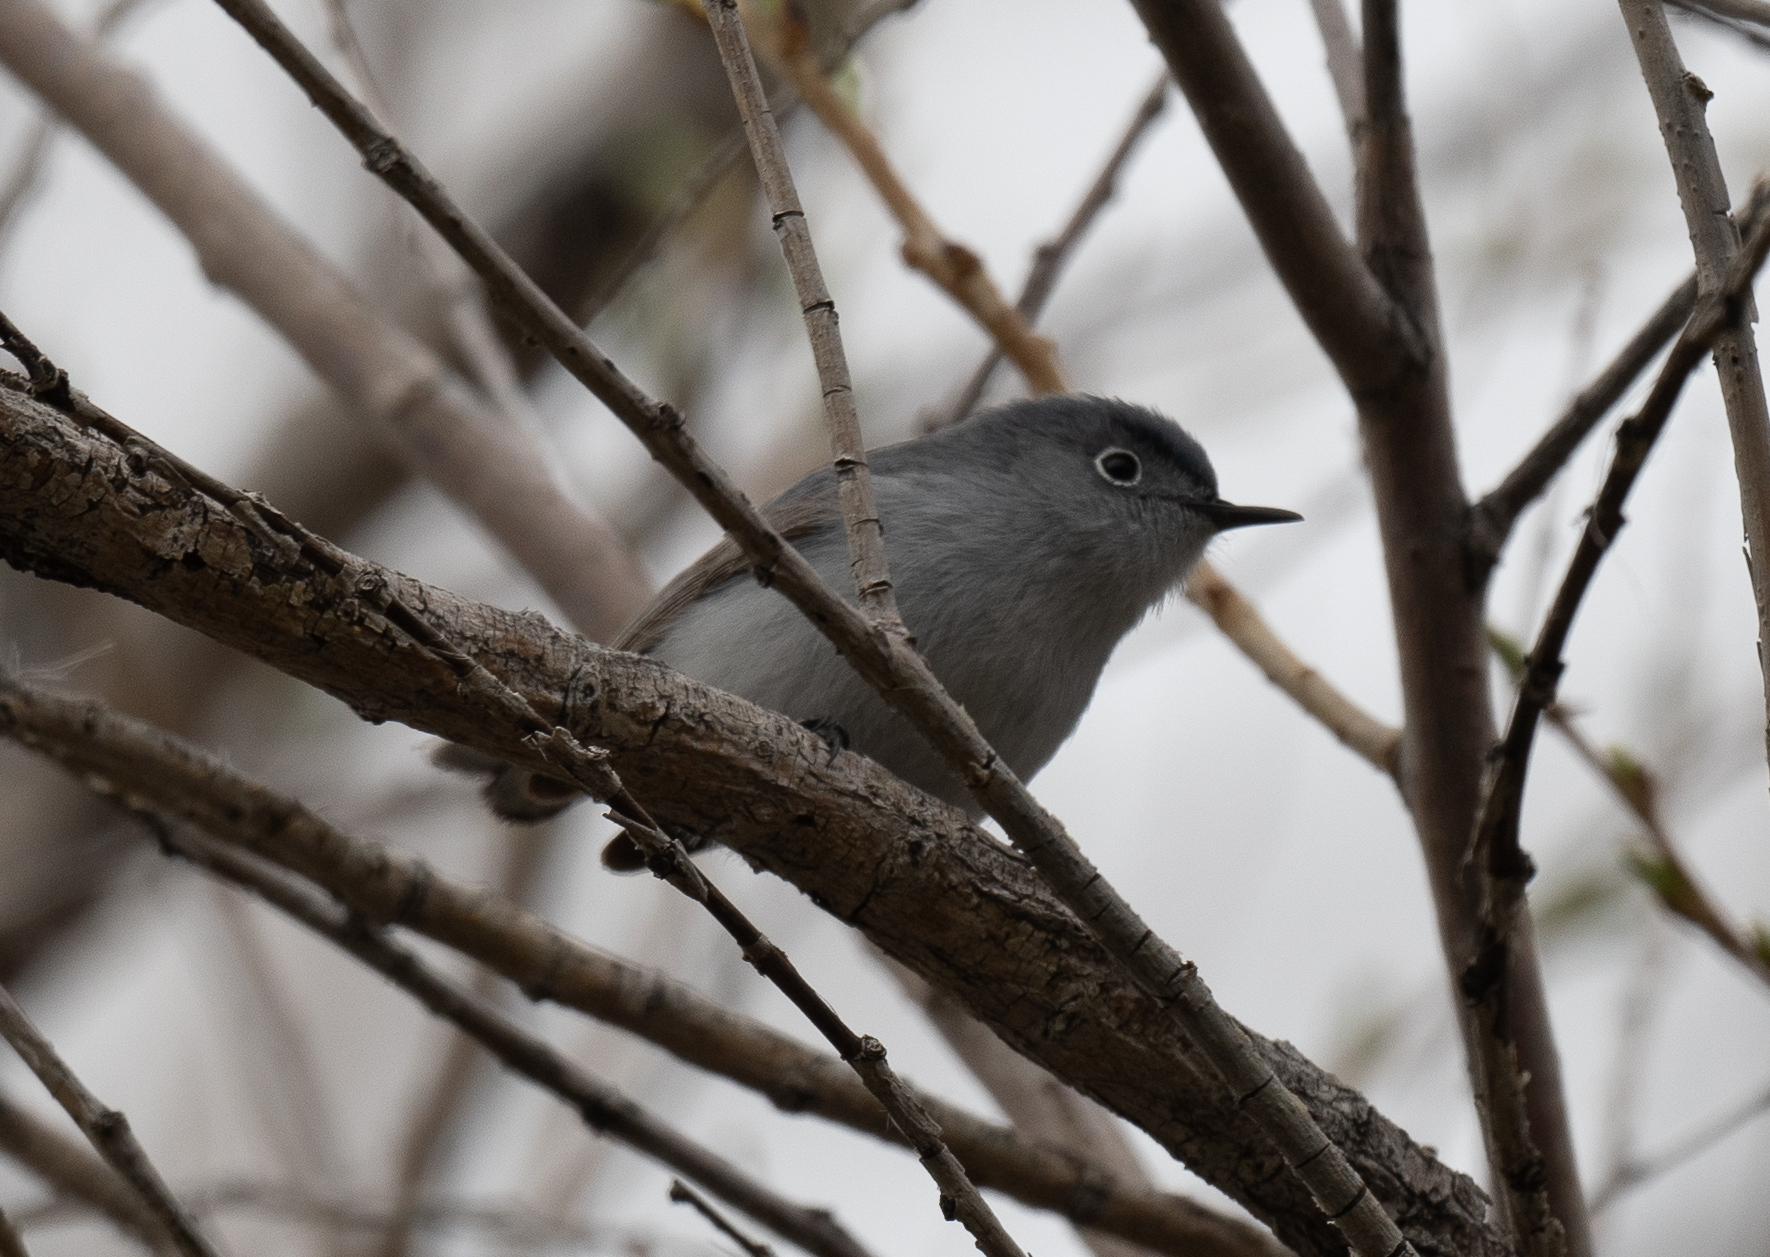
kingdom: Animalia
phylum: Chordata
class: Aves
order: Passeriformes
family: Polioptilidae
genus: Polioptila
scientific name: Polioptila caerulea
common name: Blue-gray gnatcatcher
